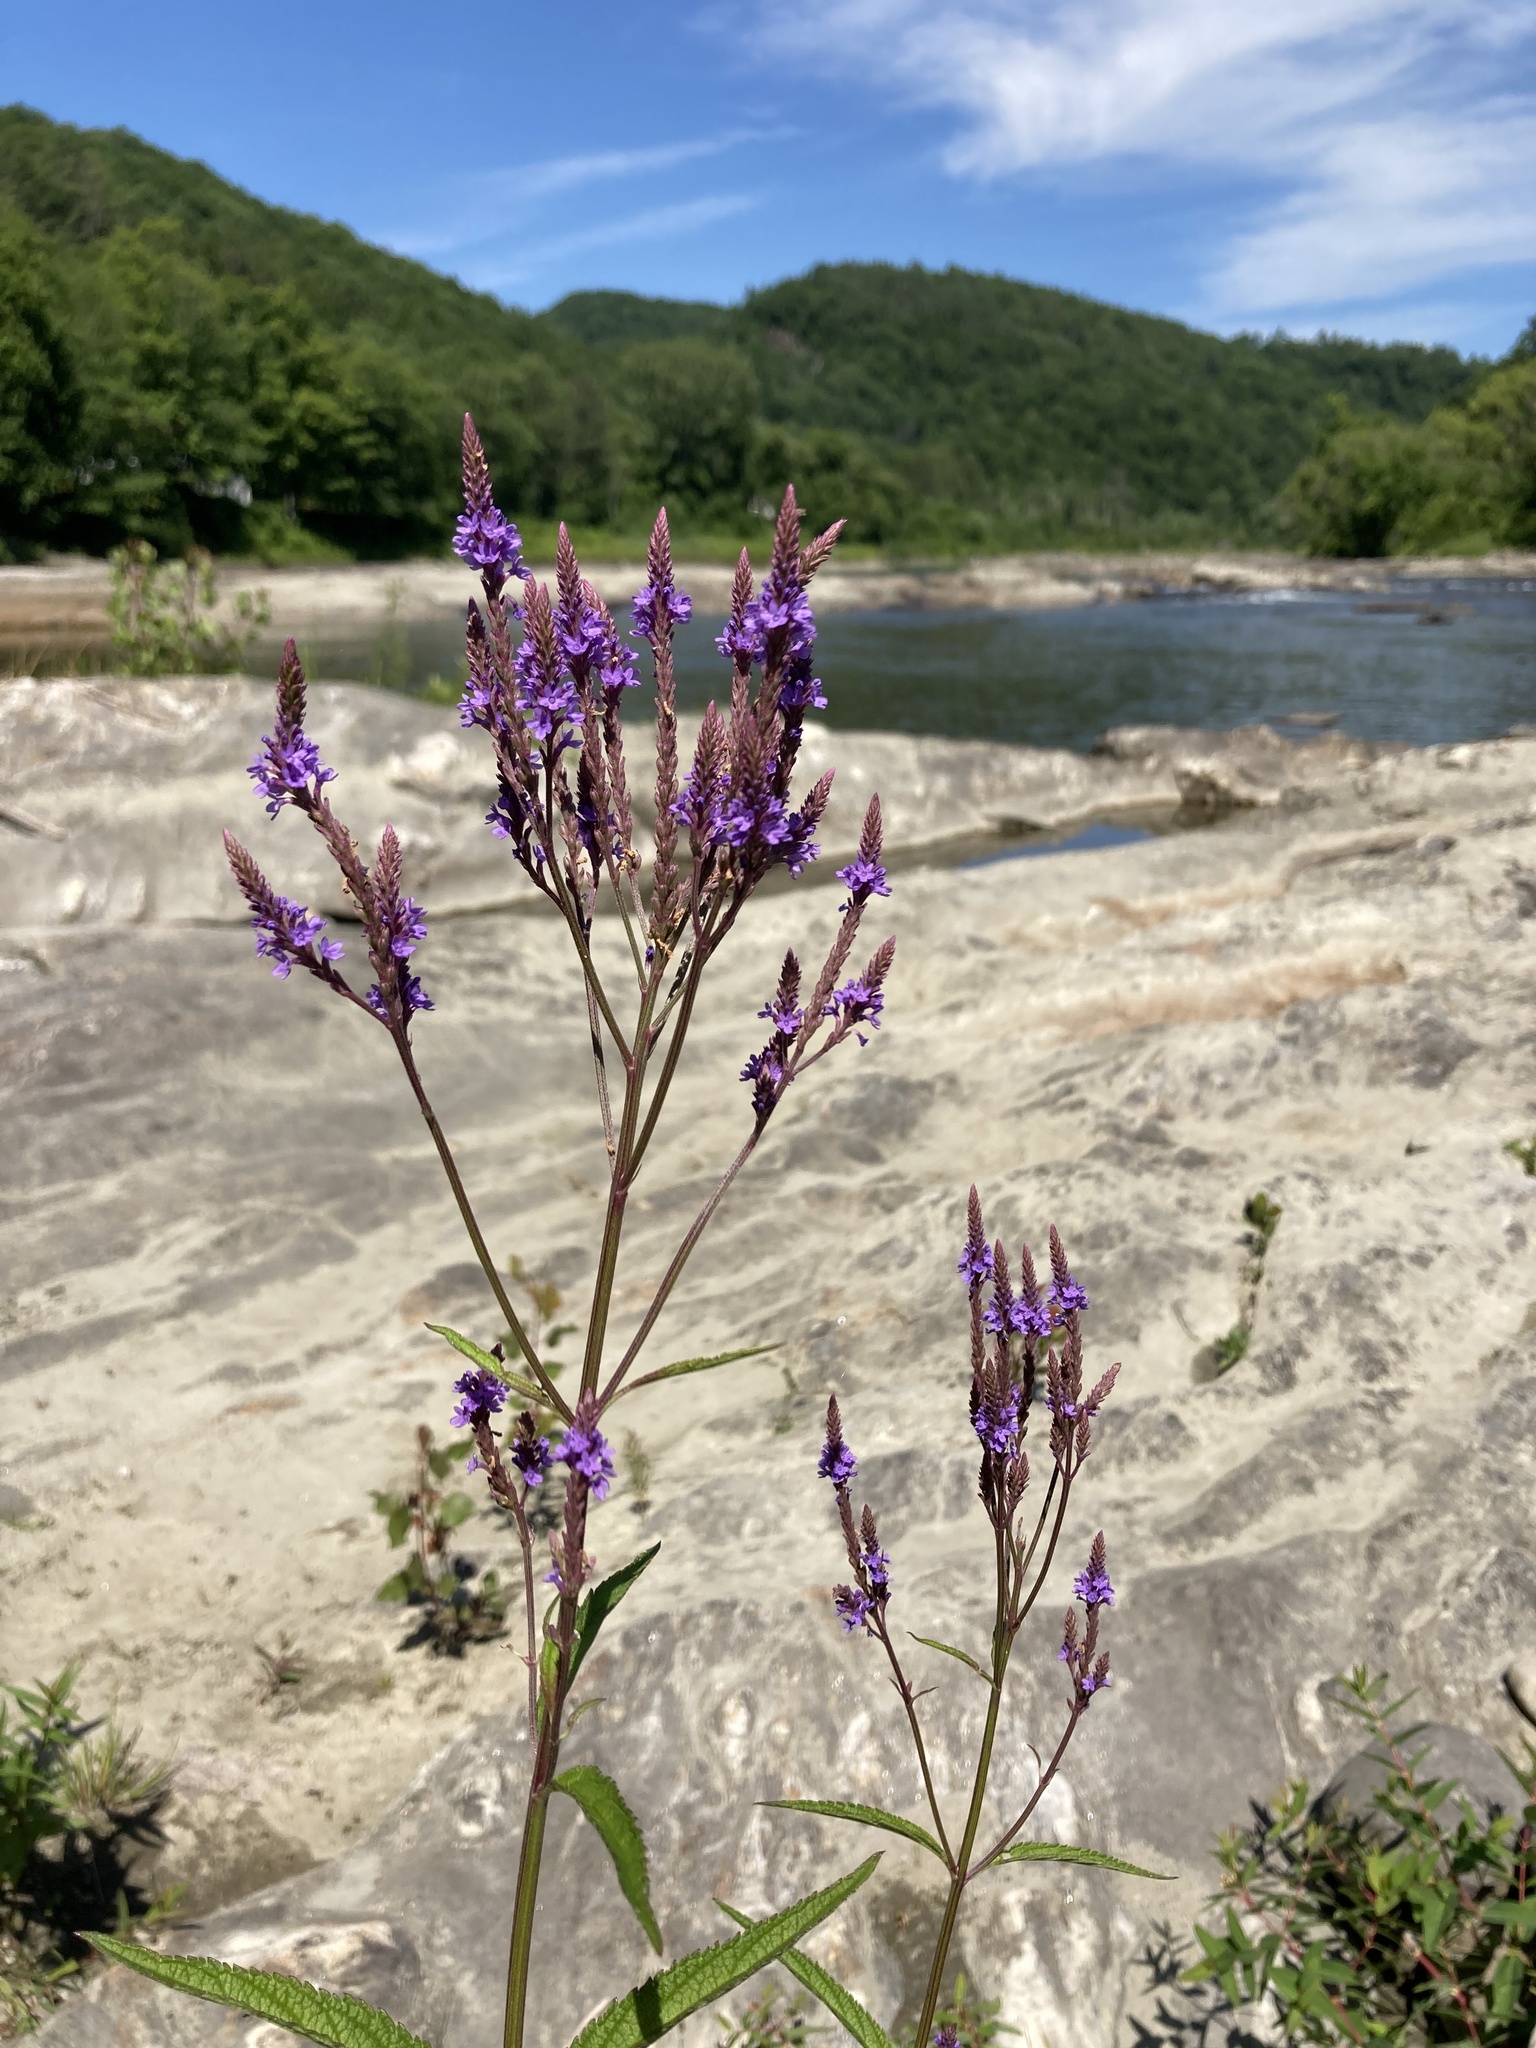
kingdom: Plantae
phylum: Tracheophyta
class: Magnoliopsida
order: Lamiales
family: Verbenaceae
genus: Verbena
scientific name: Verbena hastata
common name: American blue vervain
